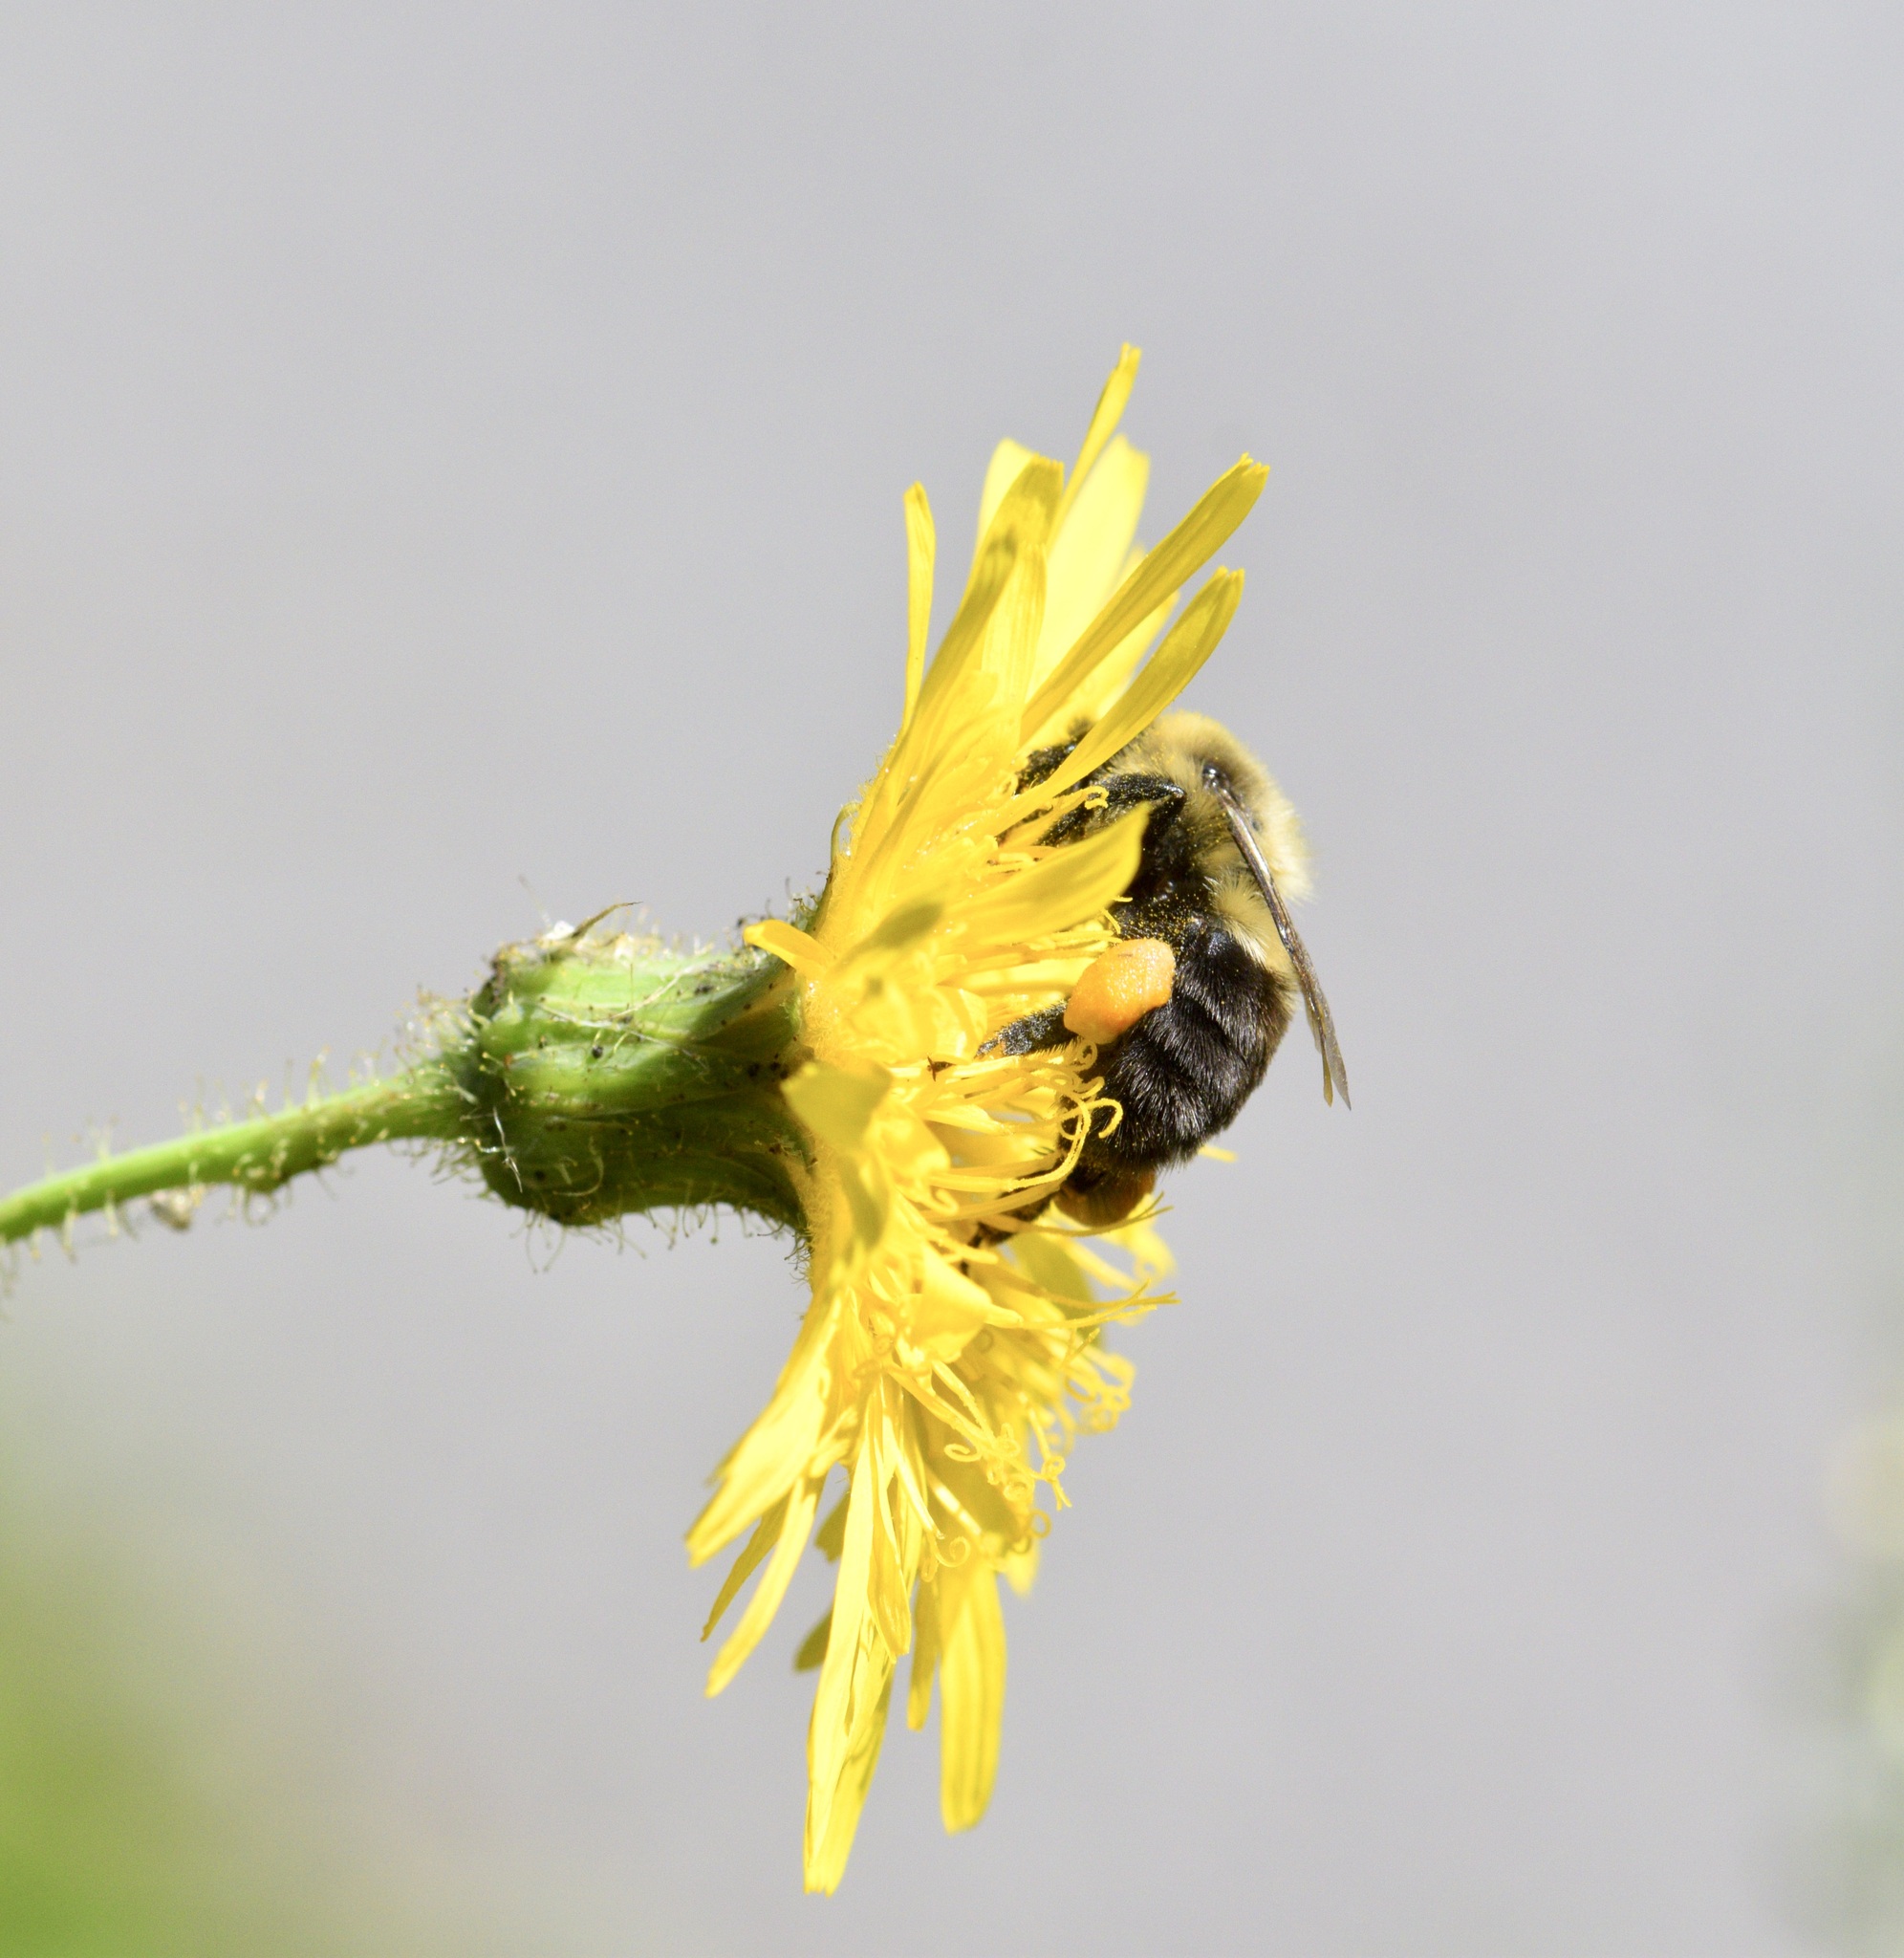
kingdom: Animalia
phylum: Arthropoda
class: Insecta
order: Hymenoptera
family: Apidae
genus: Bombus
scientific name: Bombus impatiens
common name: Common eastern bumble bee
